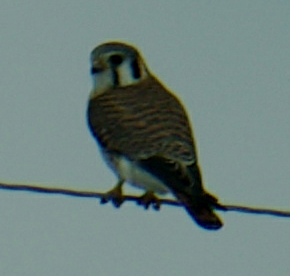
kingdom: Animalia
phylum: Chordata
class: Aves
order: Falconiformes
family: Falconidae
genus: Falco
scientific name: Falco sparverius
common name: American kestrel
